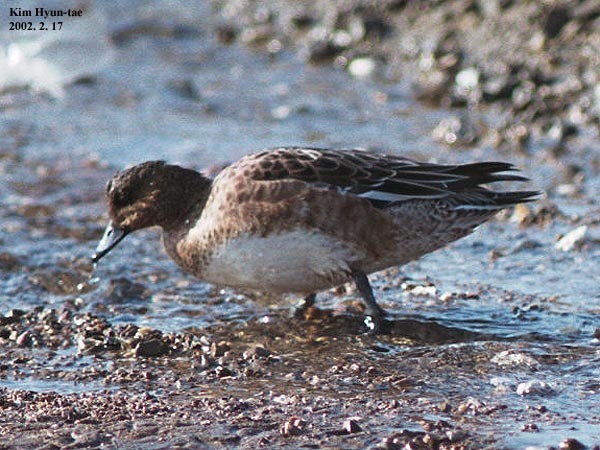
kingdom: Animalia
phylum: Chordata
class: Aves
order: Anseriformes
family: Anatidae
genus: Mareca
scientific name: Mareca penelope
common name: Eurasian wigeon
